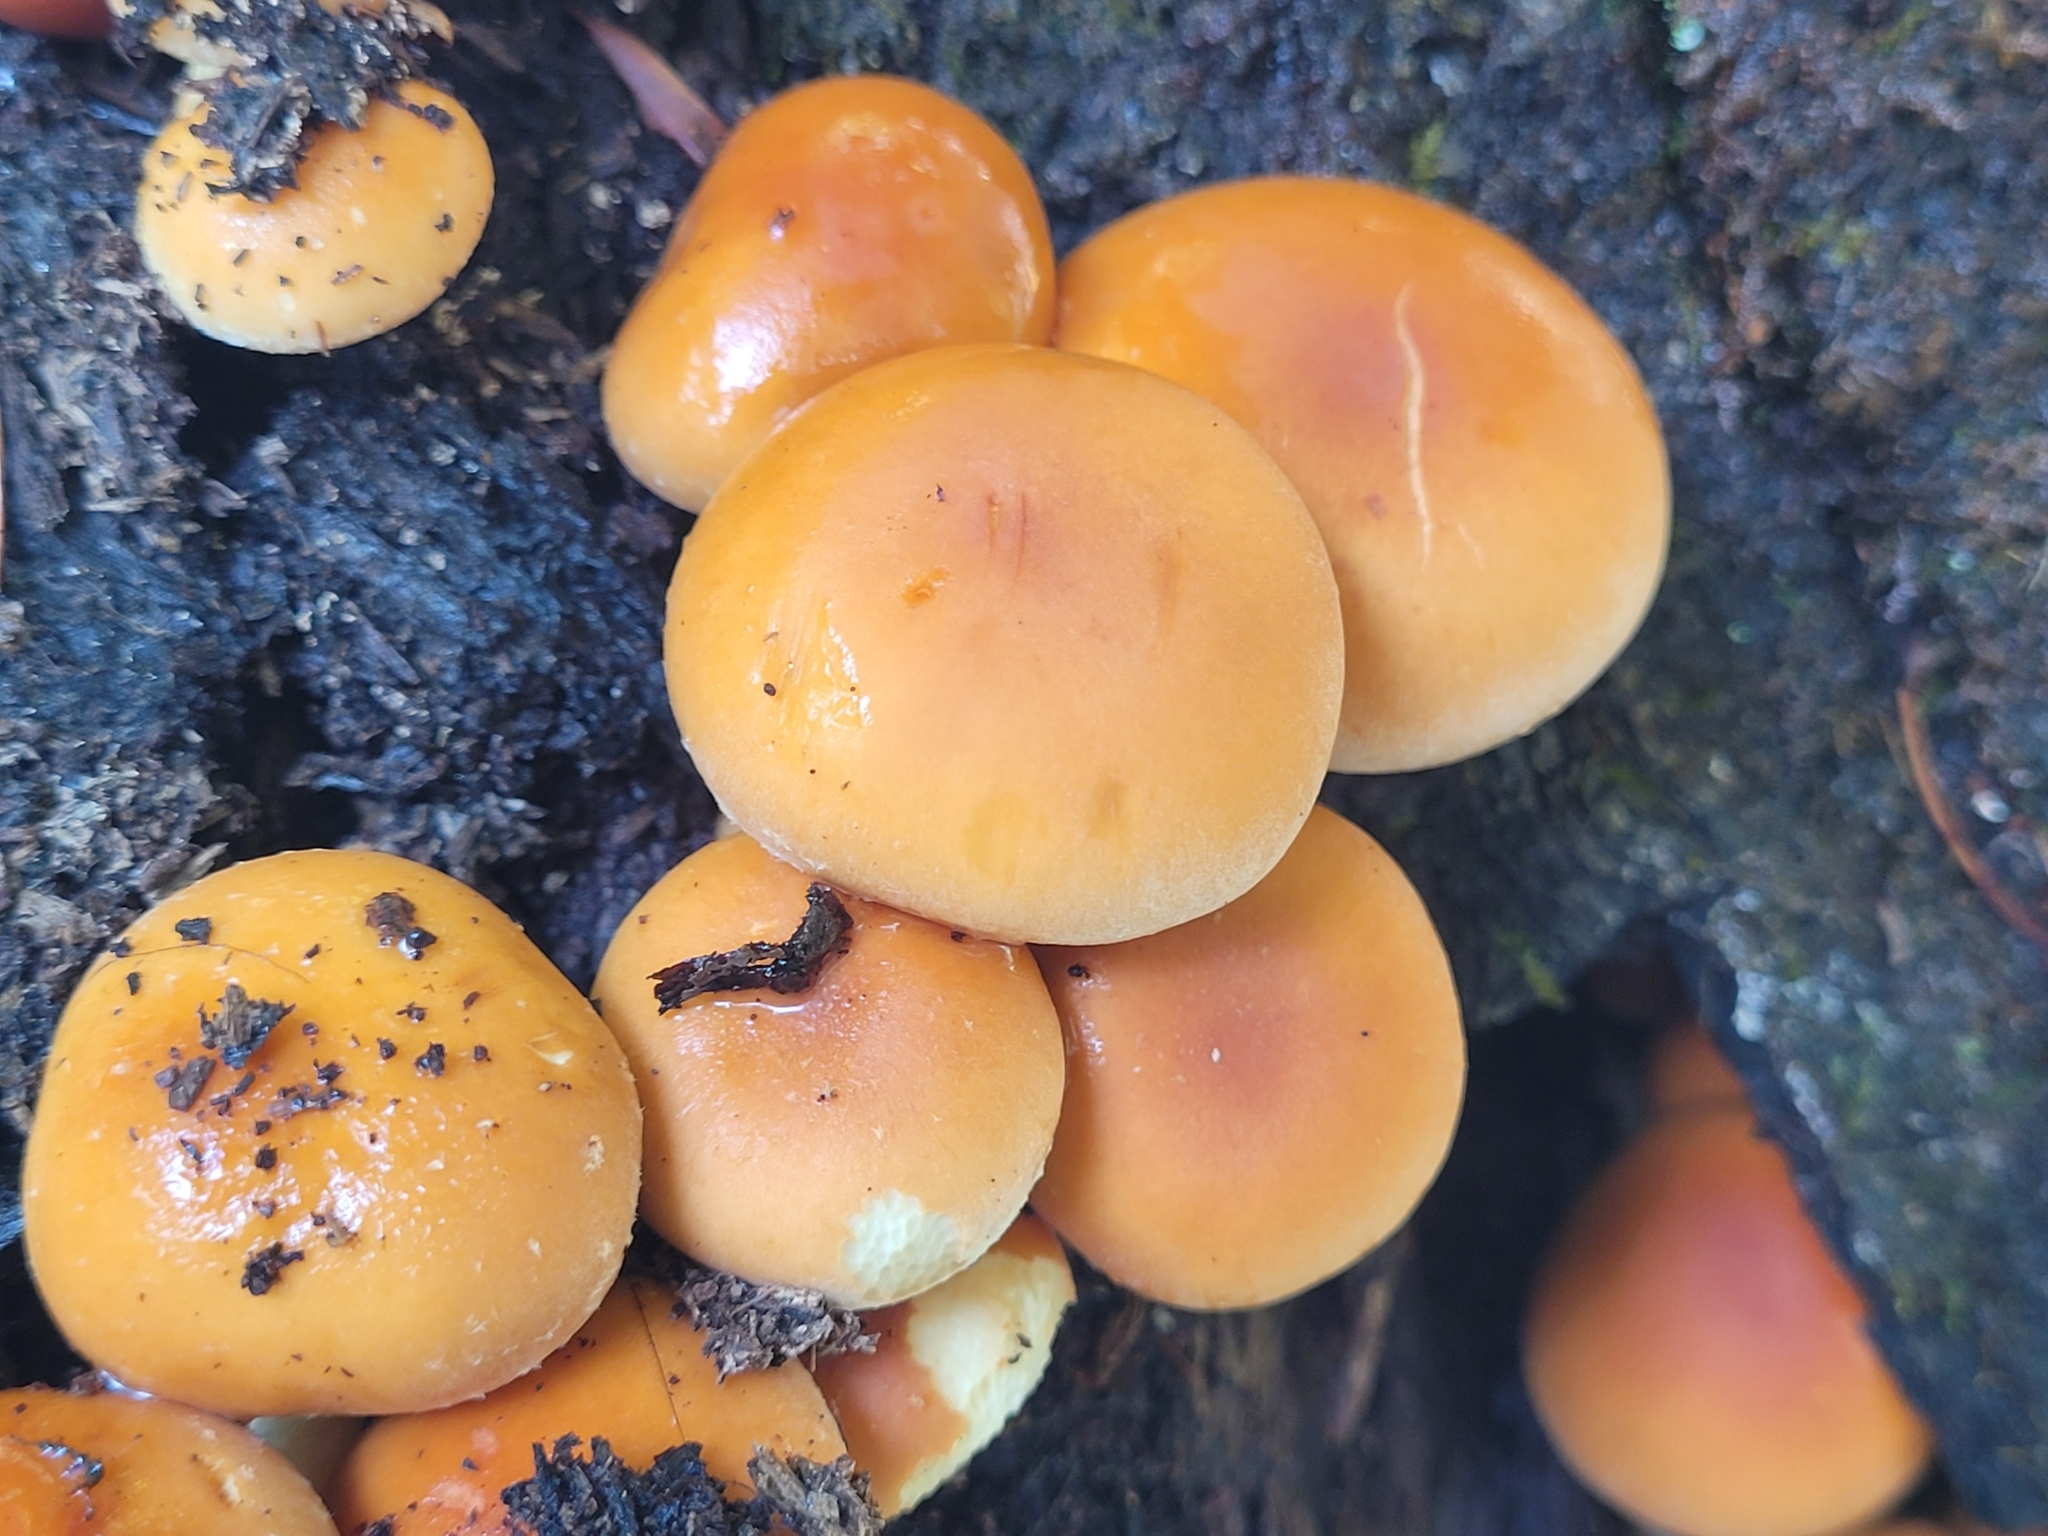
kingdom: Fungi
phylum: Basidiomycota
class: Agaricomycetes
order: Agaricales
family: Physalacriaceae
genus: Flammulina
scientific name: Flammulina velutipes
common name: Velvet shank
